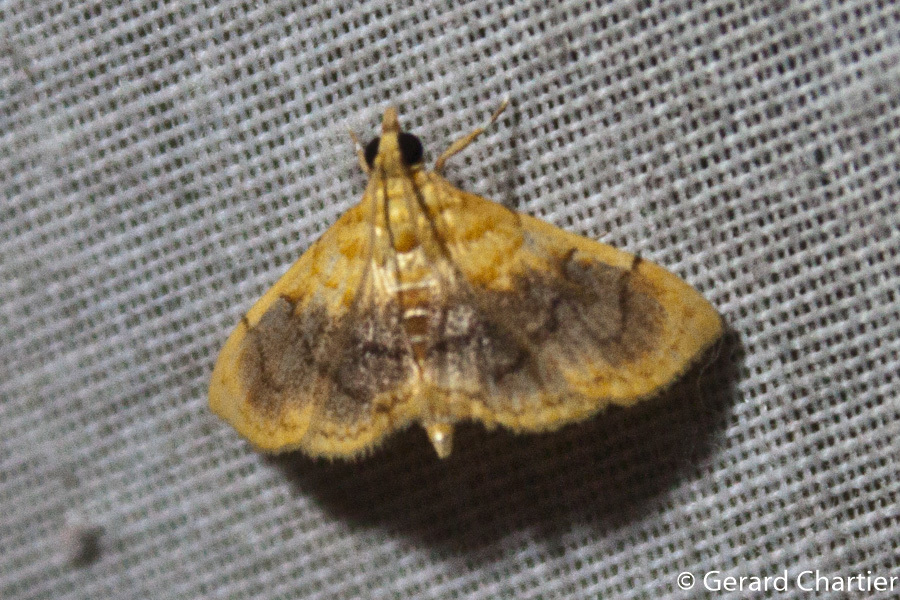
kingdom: Animalia
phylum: Arthropoda
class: Insecta
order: Lepidoptera
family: Crambidae
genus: Mabra
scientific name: Mabra eryxalis
